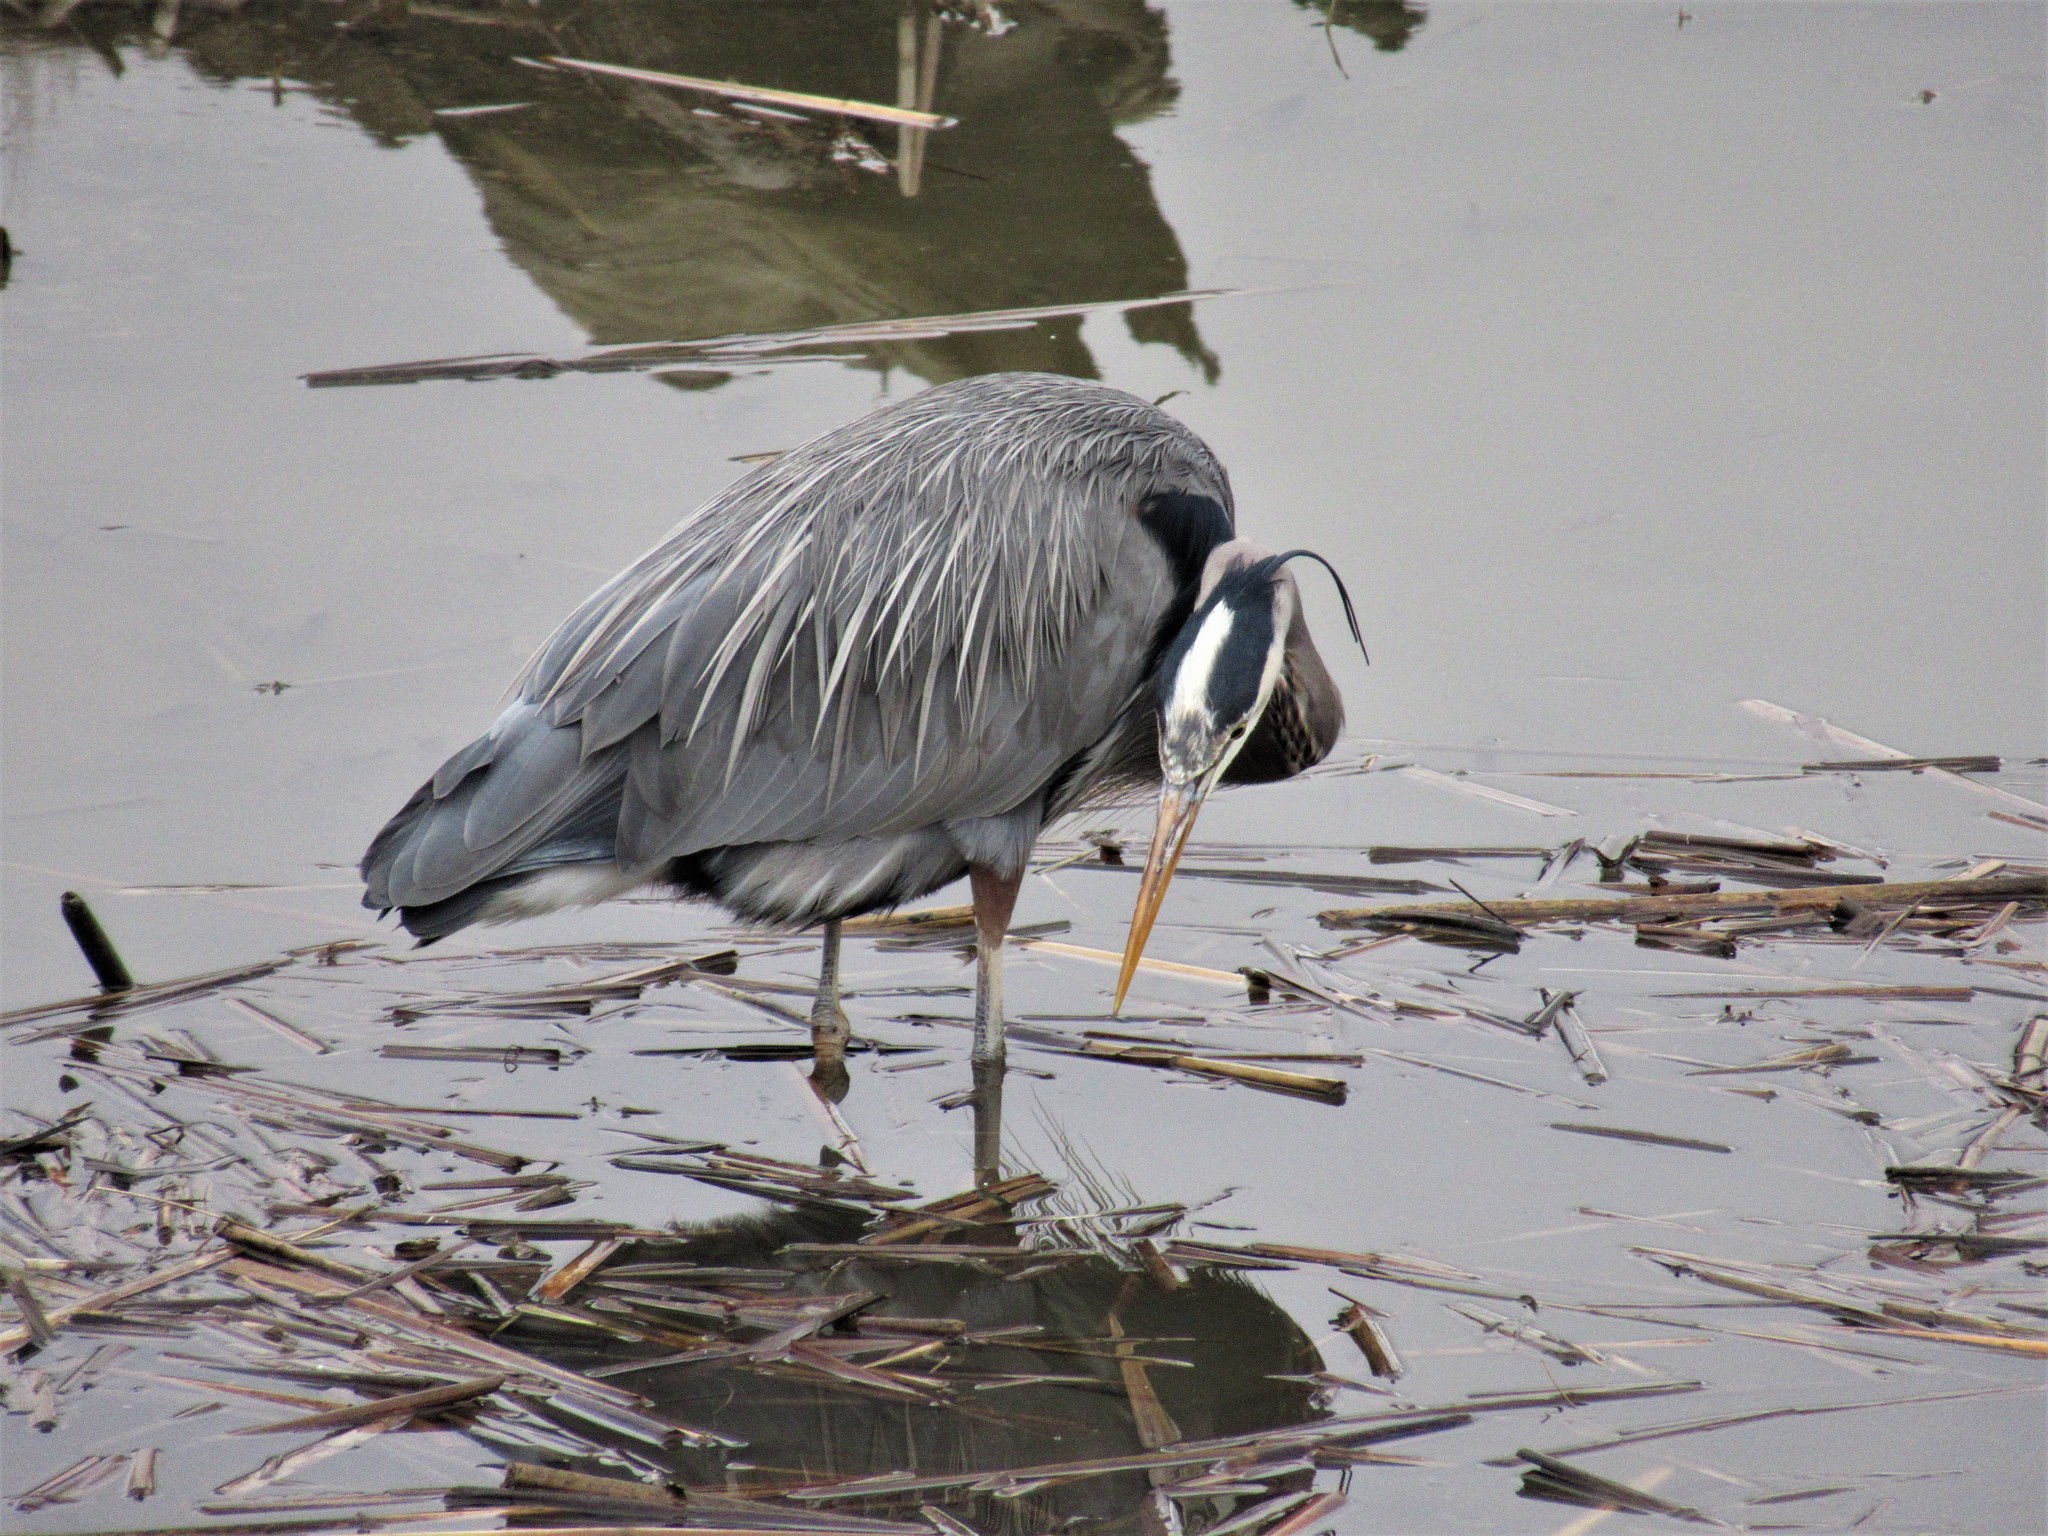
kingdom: Animalia
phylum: Chordata
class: Aves
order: Pelecaniformes
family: Ardeidae
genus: Ardea
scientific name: Ardea herodias
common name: Great blue heron
